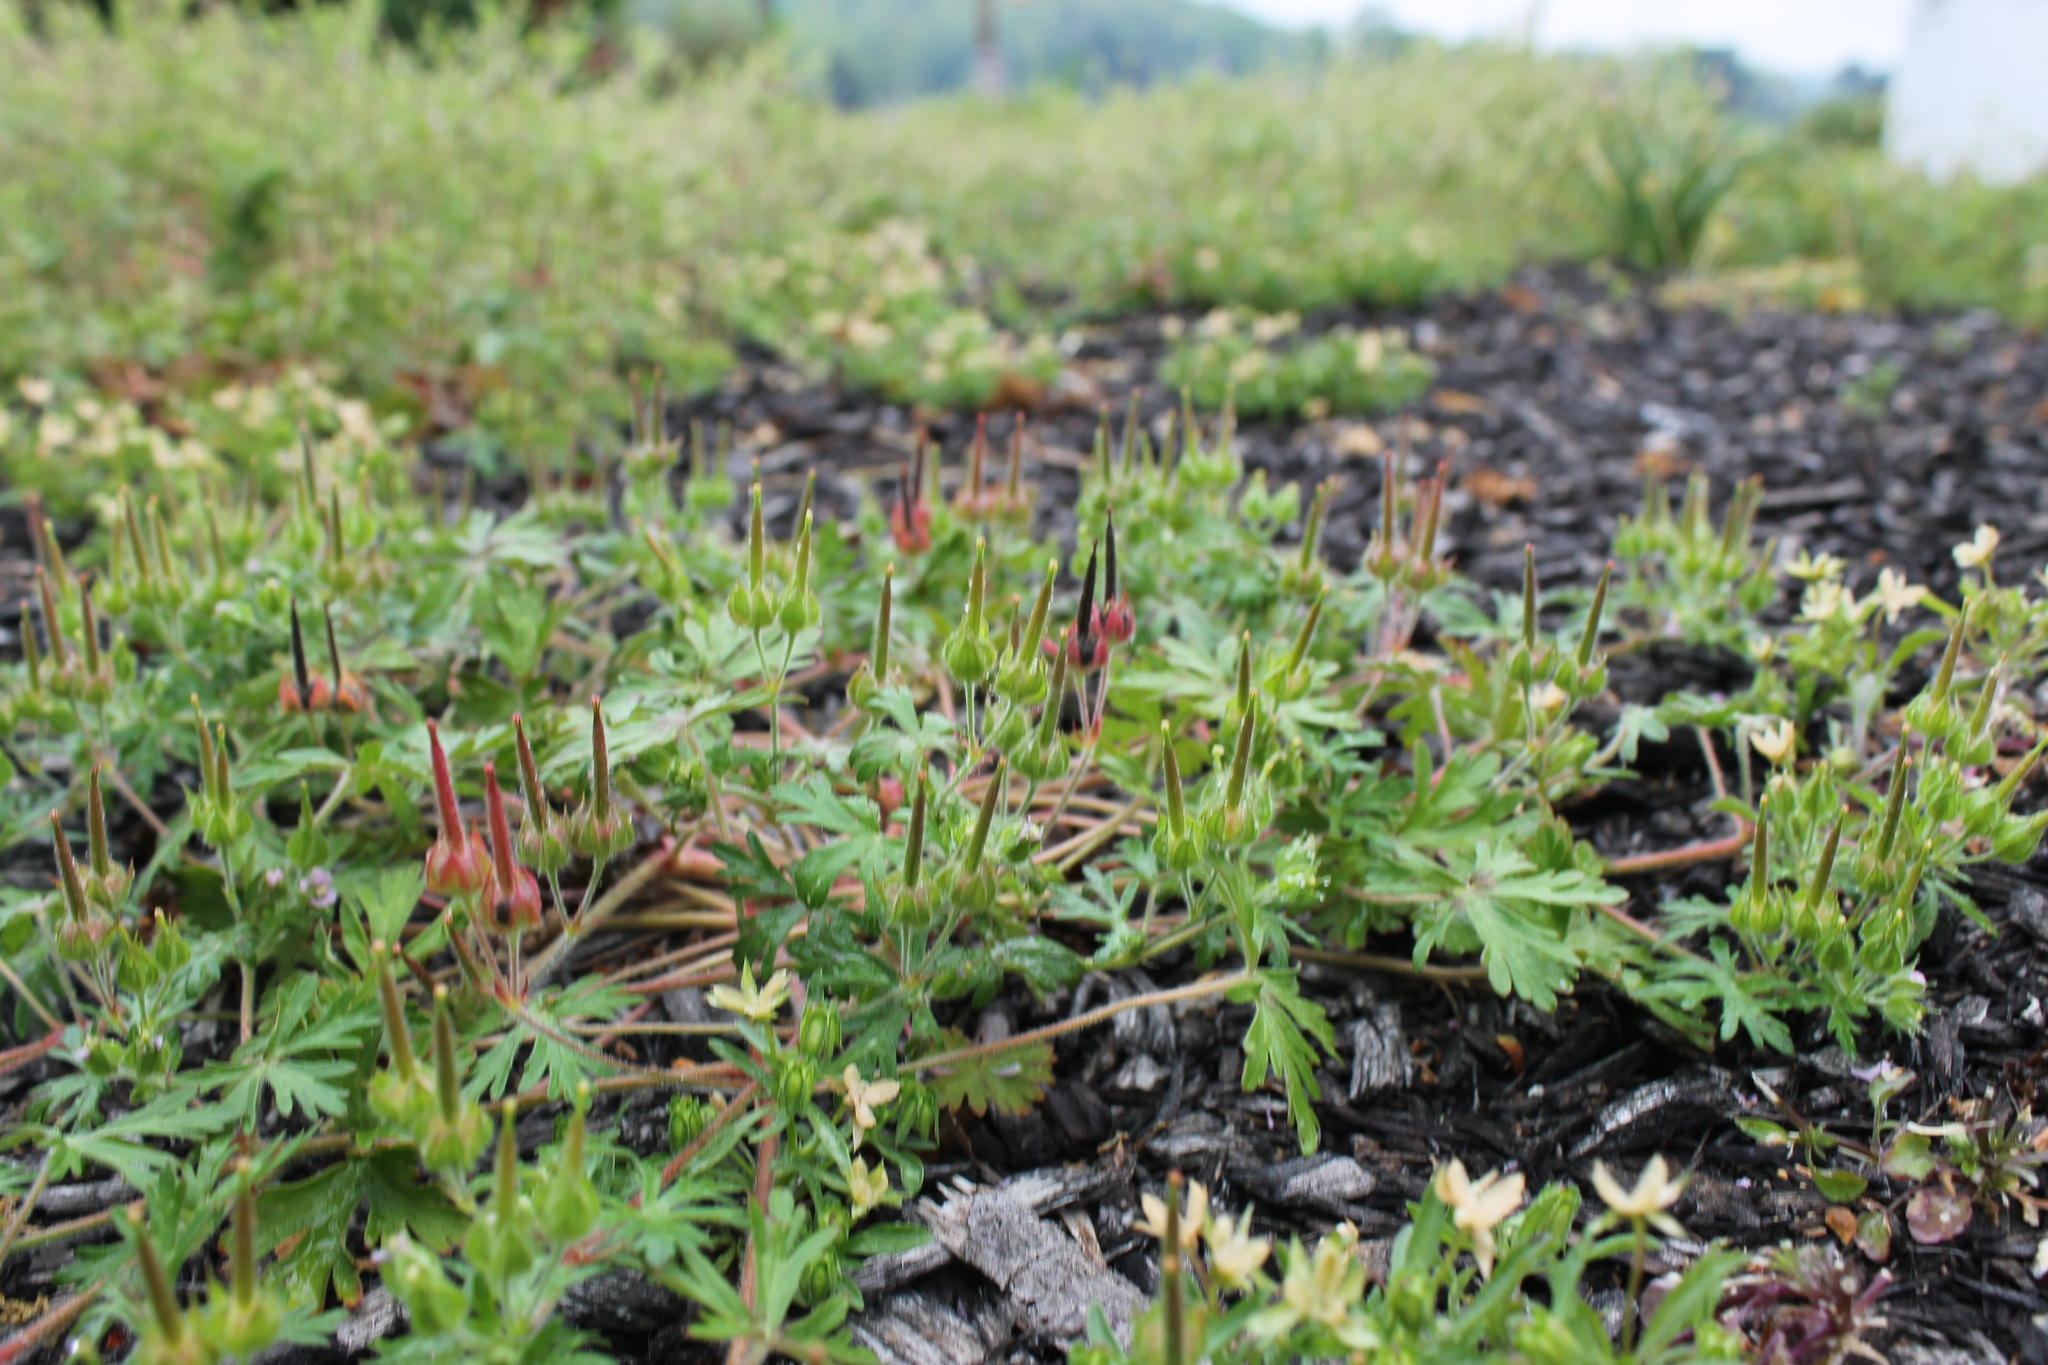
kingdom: Plantae
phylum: Tracheophyta
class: Magnoliopsida
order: Geraniales
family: Geraniaceae
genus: Geranium
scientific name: Geranium carolinianum
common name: Carolina crane's-bill
